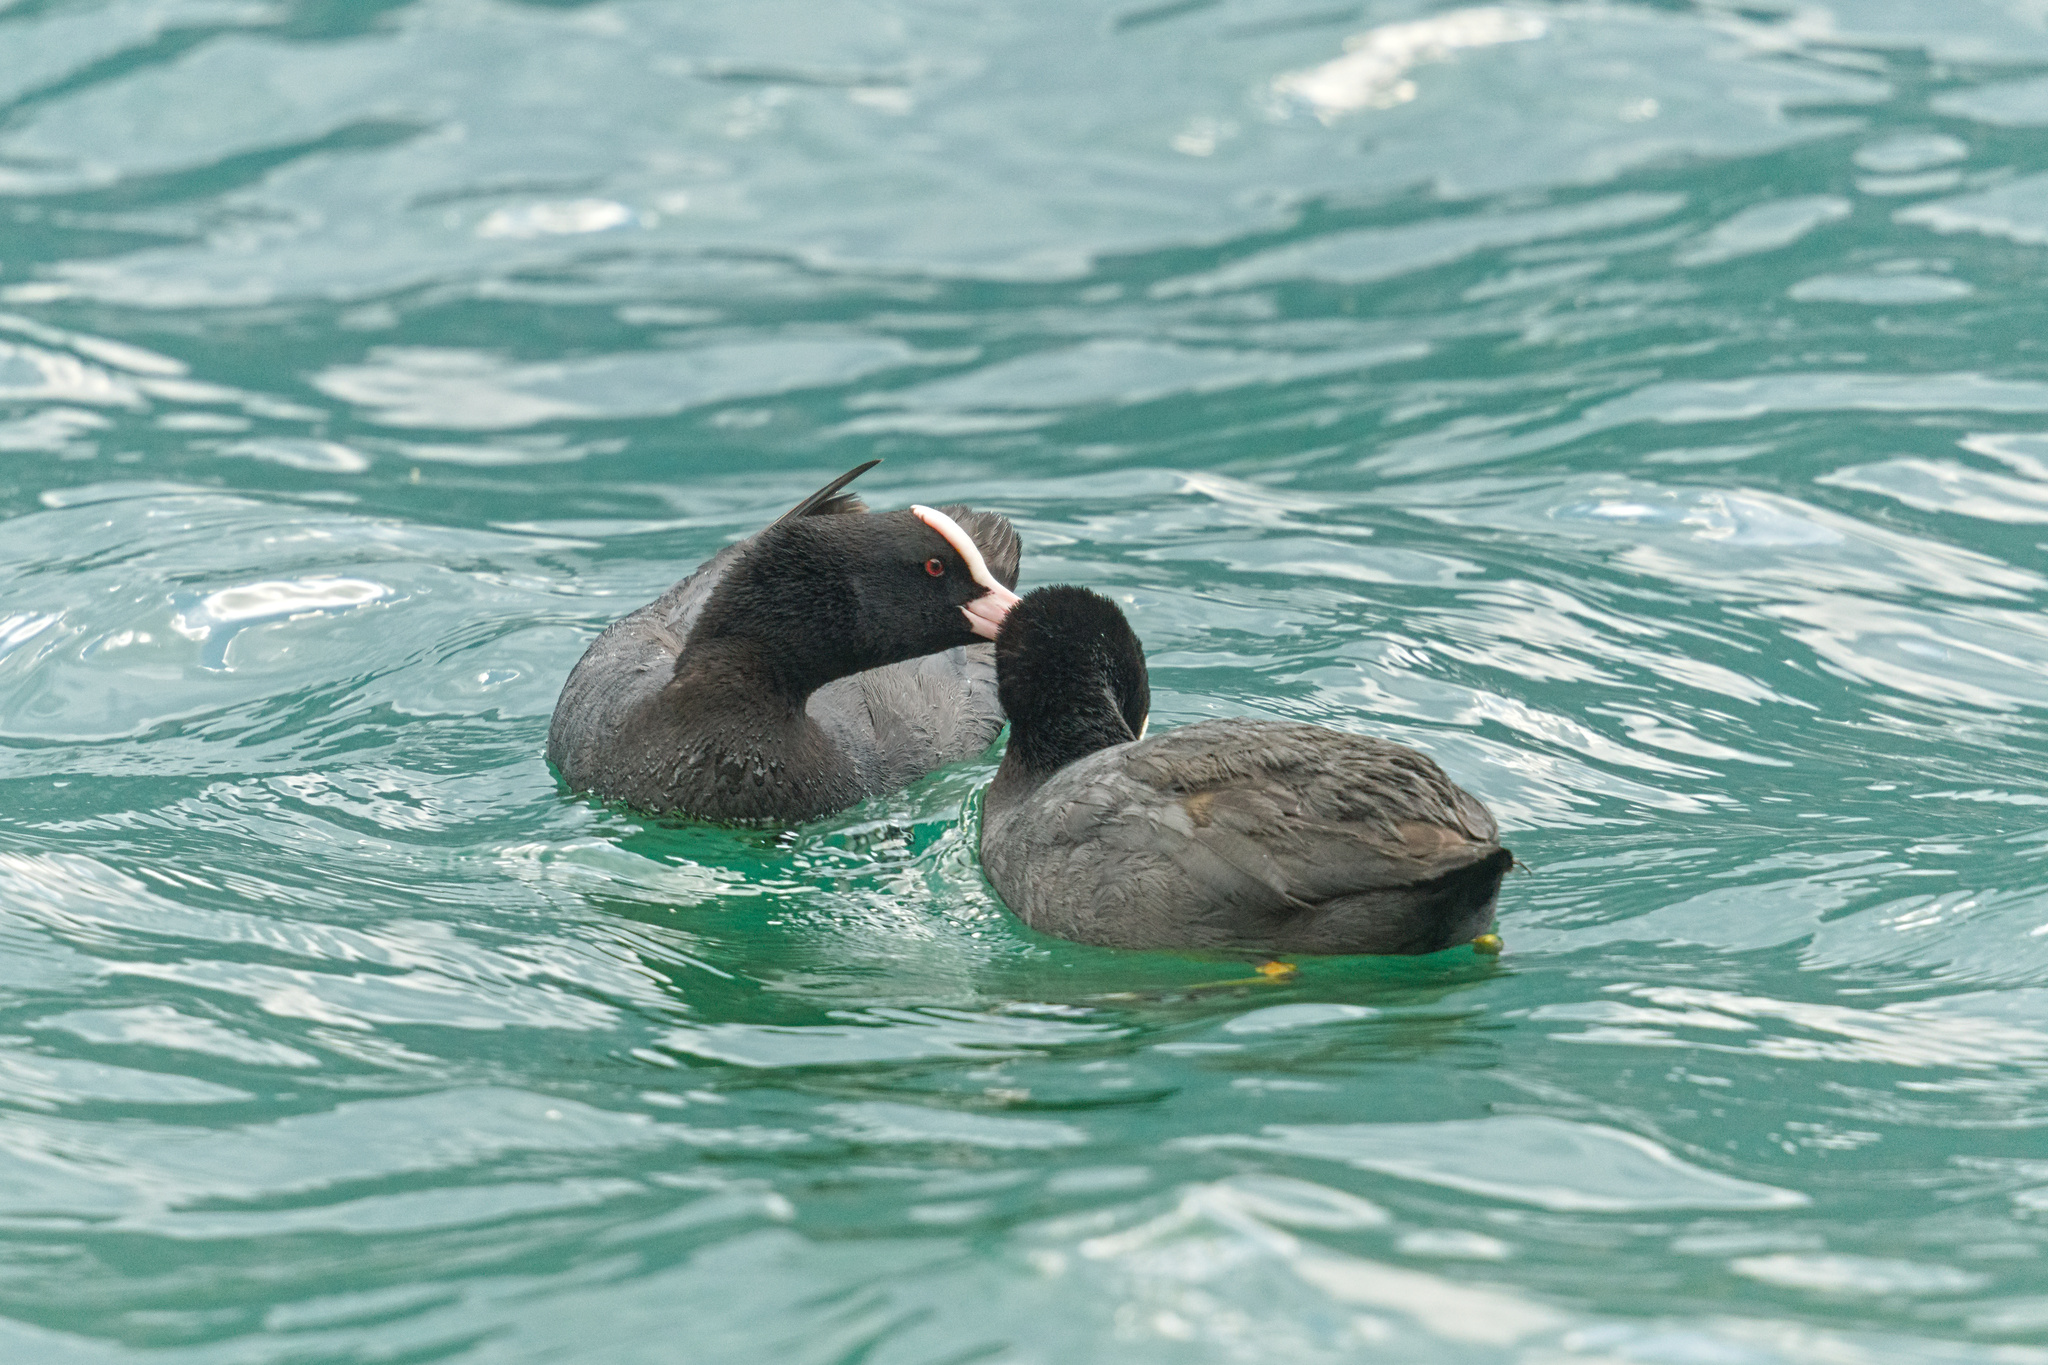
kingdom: Animalia
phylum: Chordata
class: Aves
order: Gruiformes
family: Rallidae
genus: Fulica
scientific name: Fulica atra
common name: Eurasian coot
